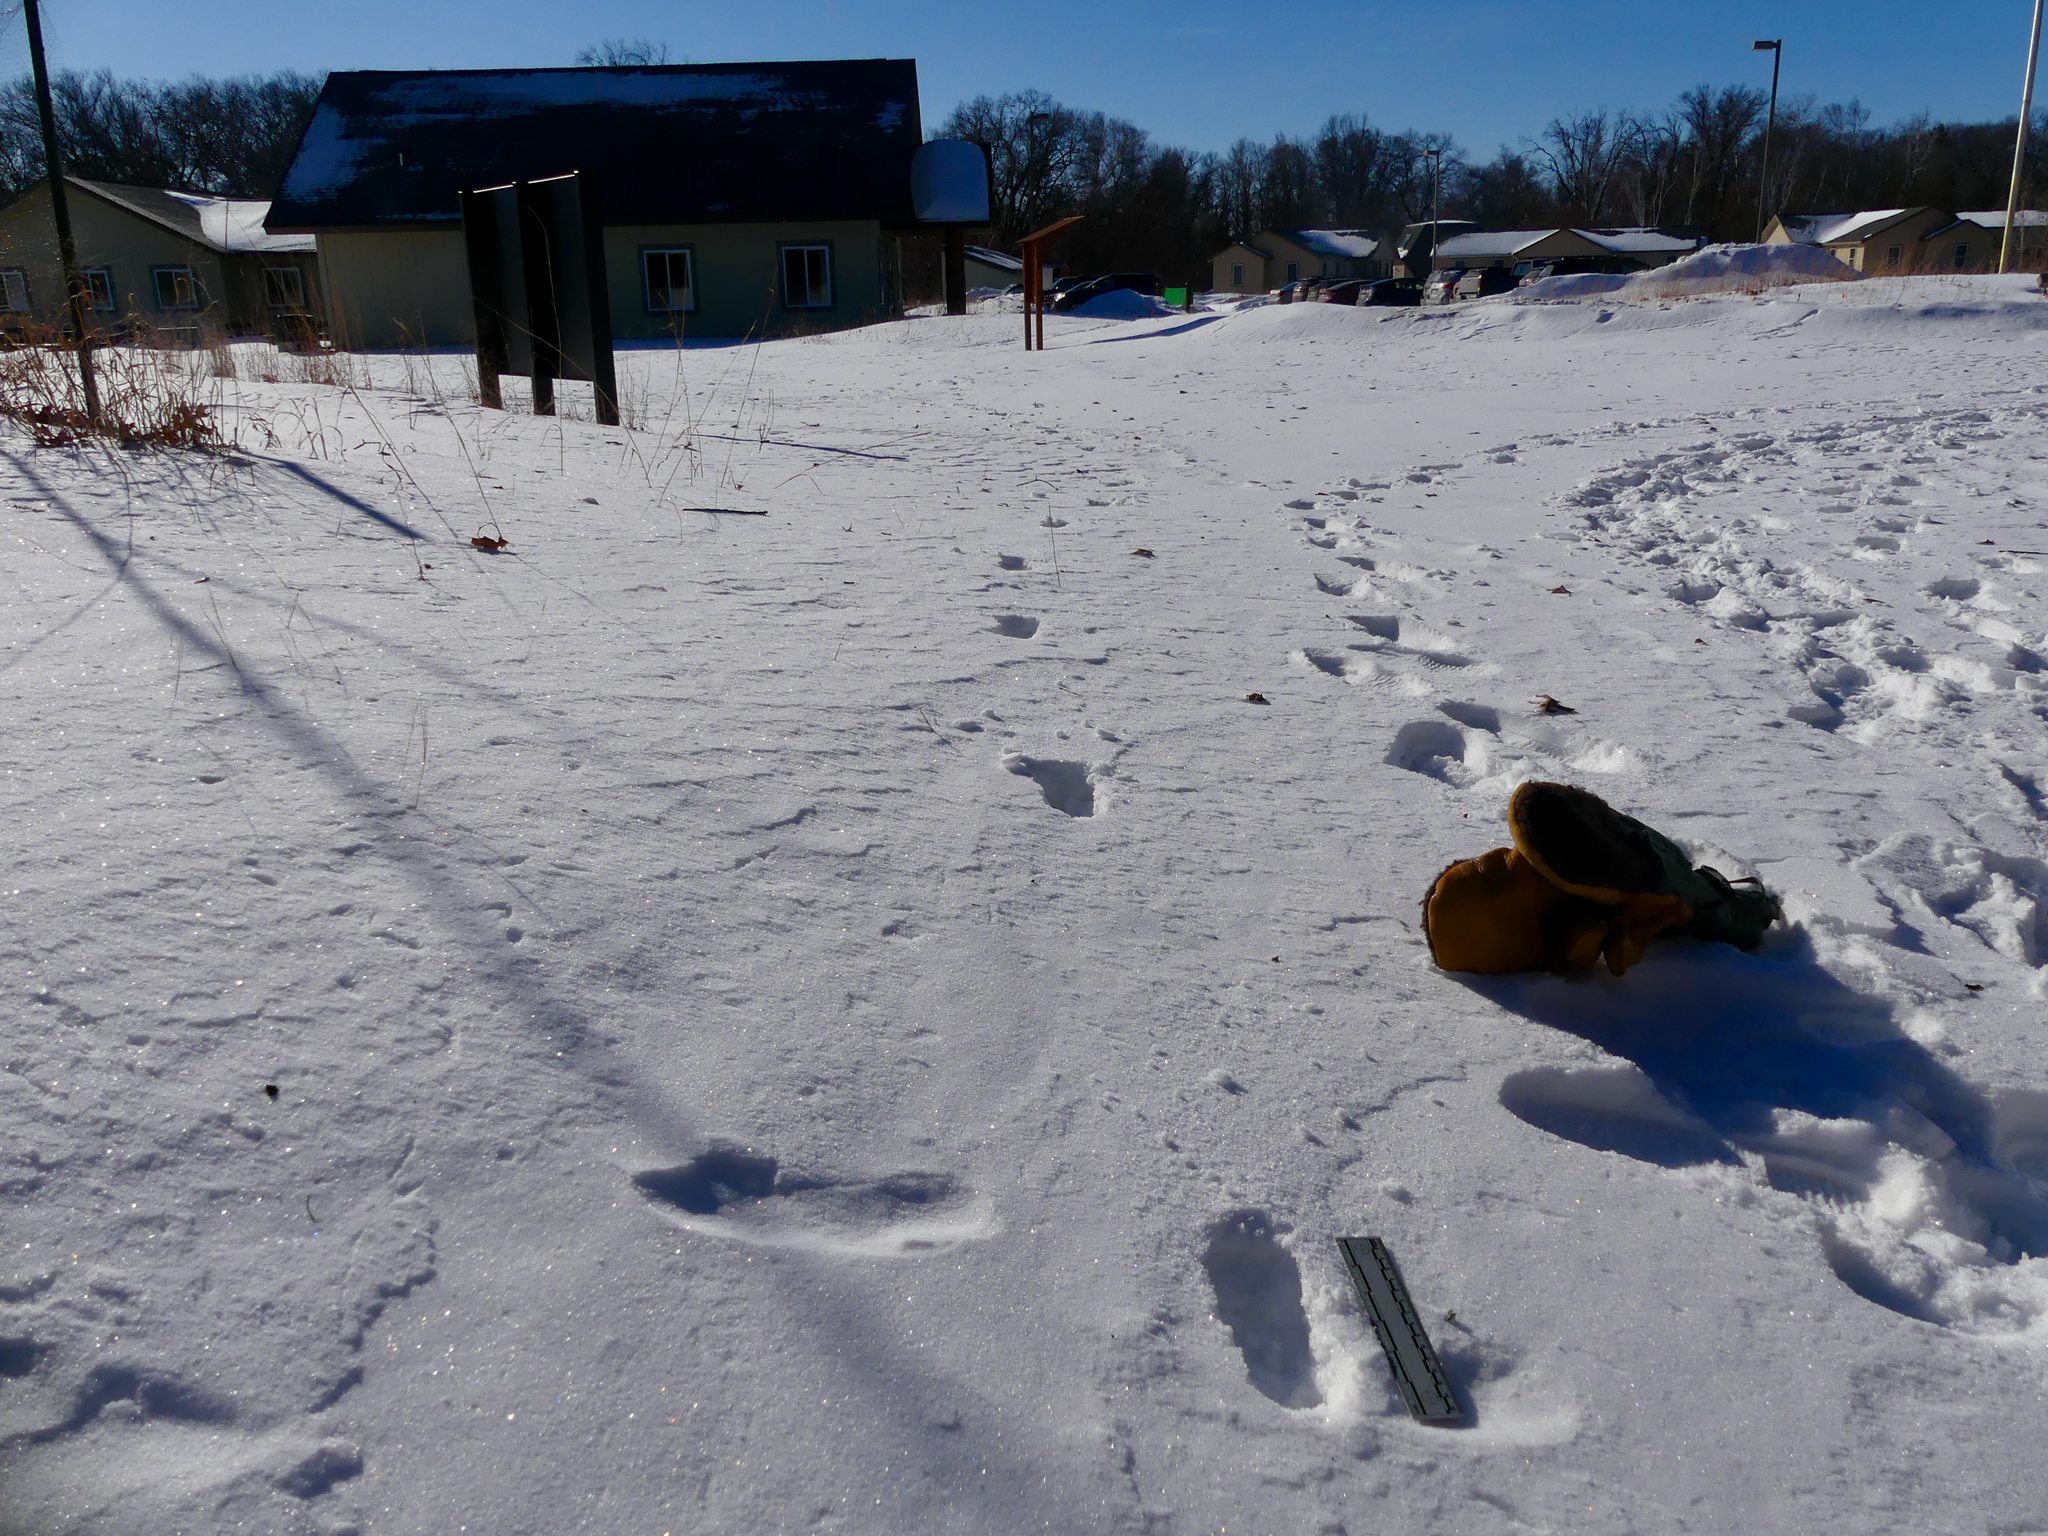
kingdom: Animalia
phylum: Chordata
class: Mammalia
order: Artiodactyla
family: Cervidae
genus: Odocoileus
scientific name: Odocoileus virginianus
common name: White-tailed deer
